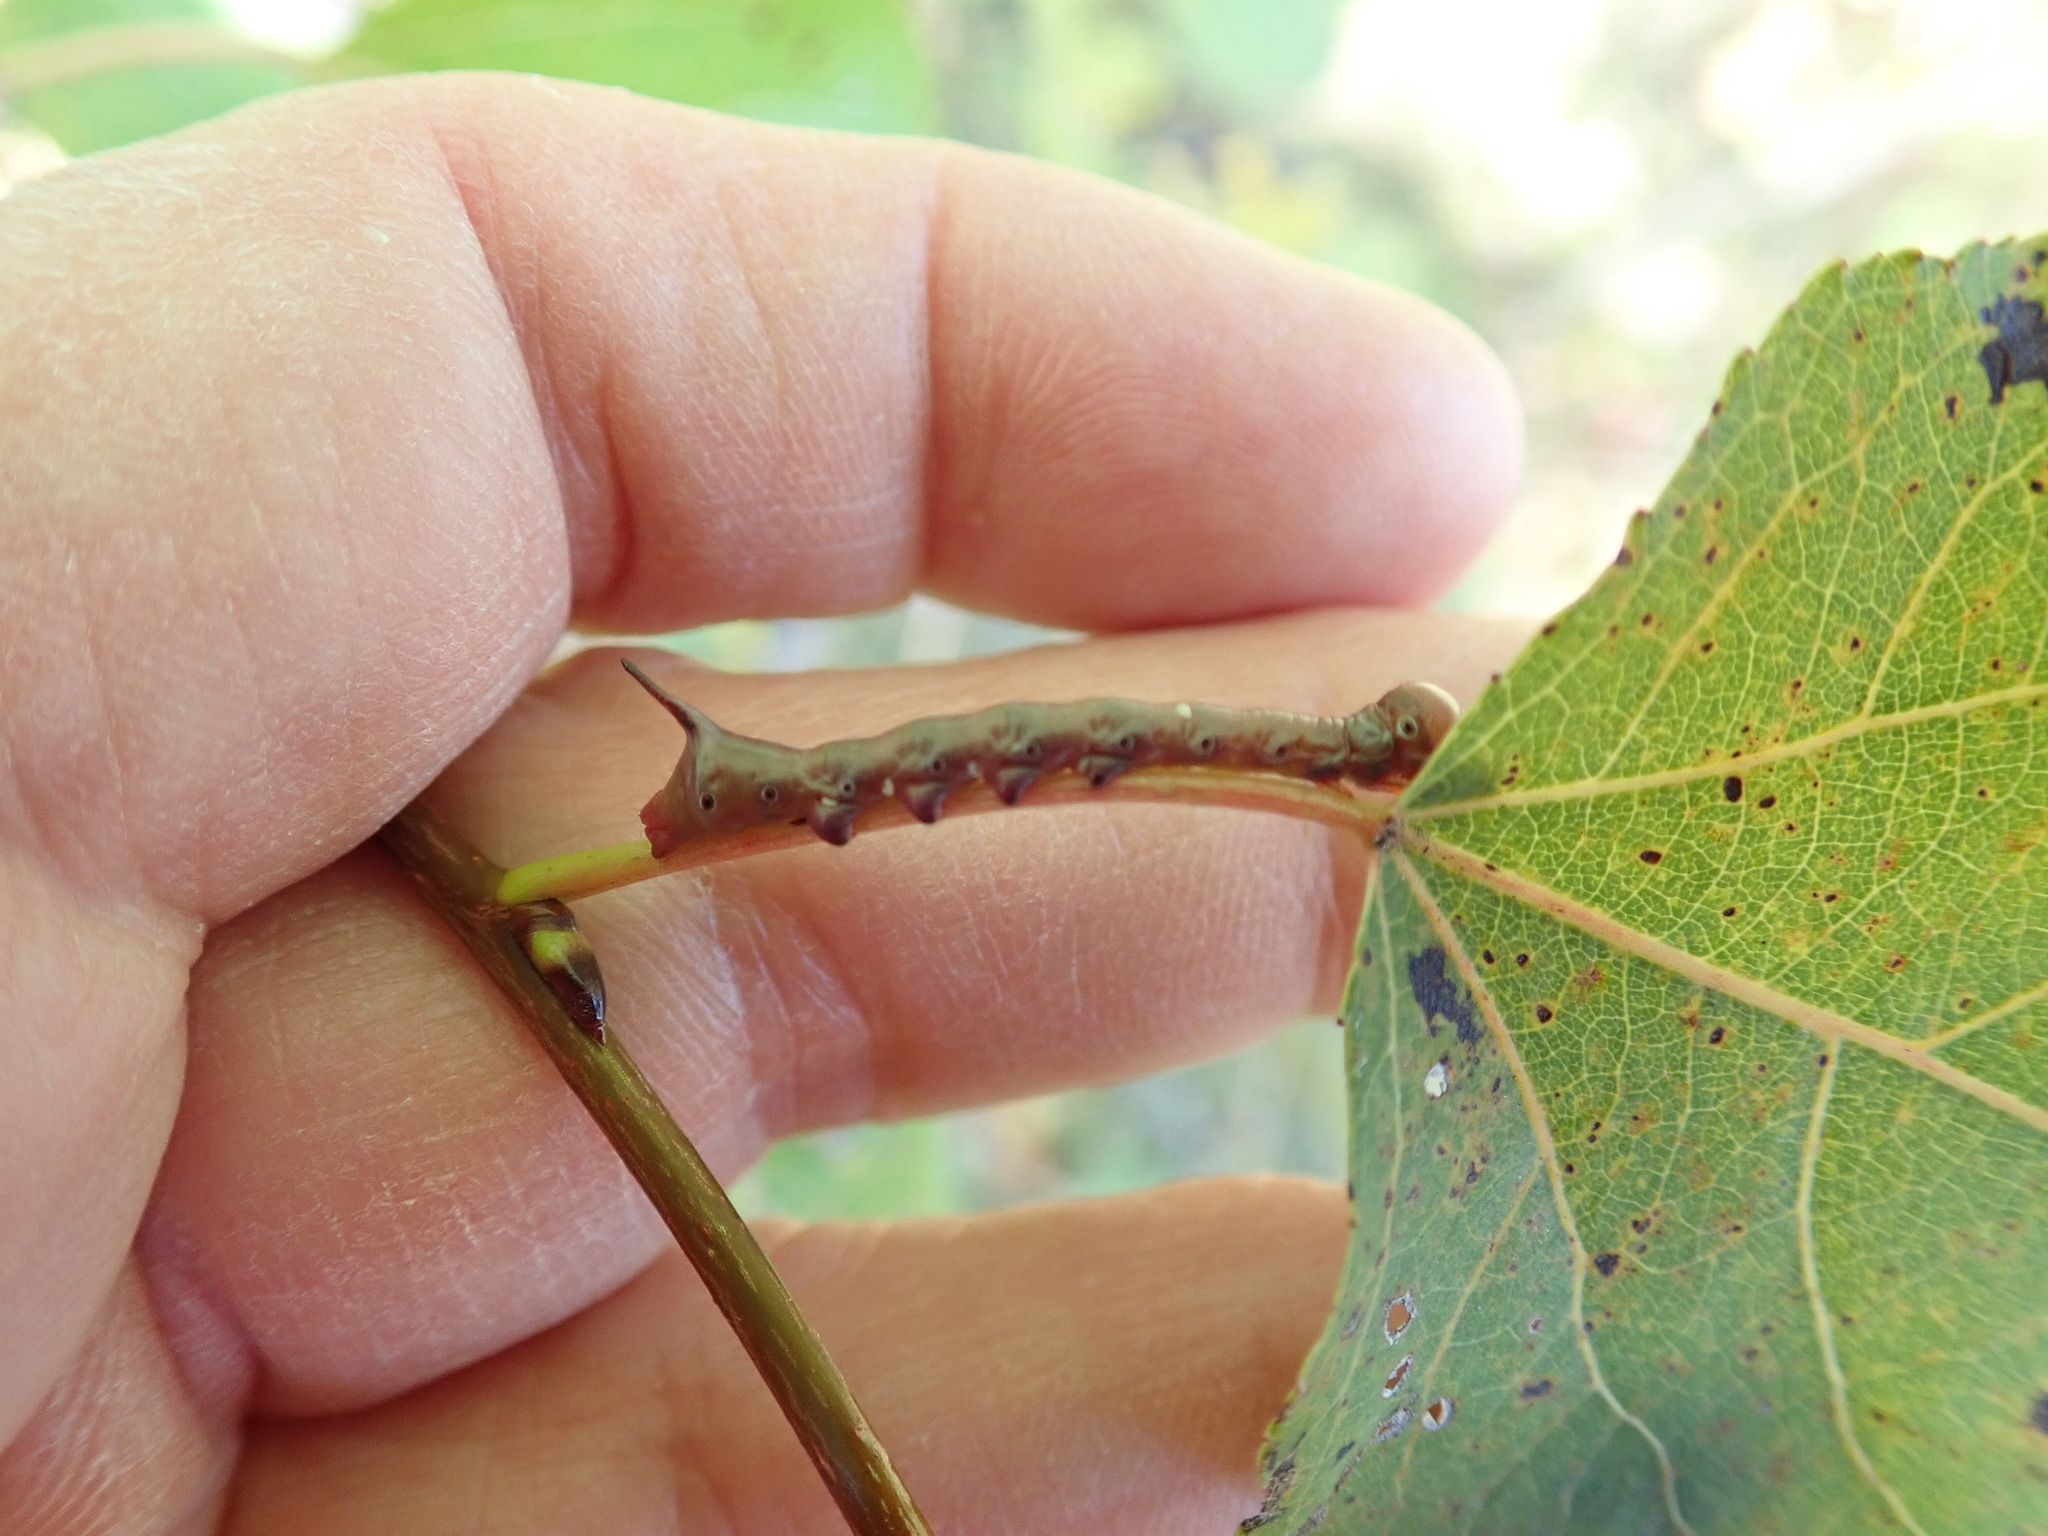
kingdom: Animalia
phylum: Arthropoda
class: Insecta
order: Lepidoptera
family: Notodontidae
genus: Pheosia
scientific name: Pheosia rimosa
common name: Black-rimmed prominent
